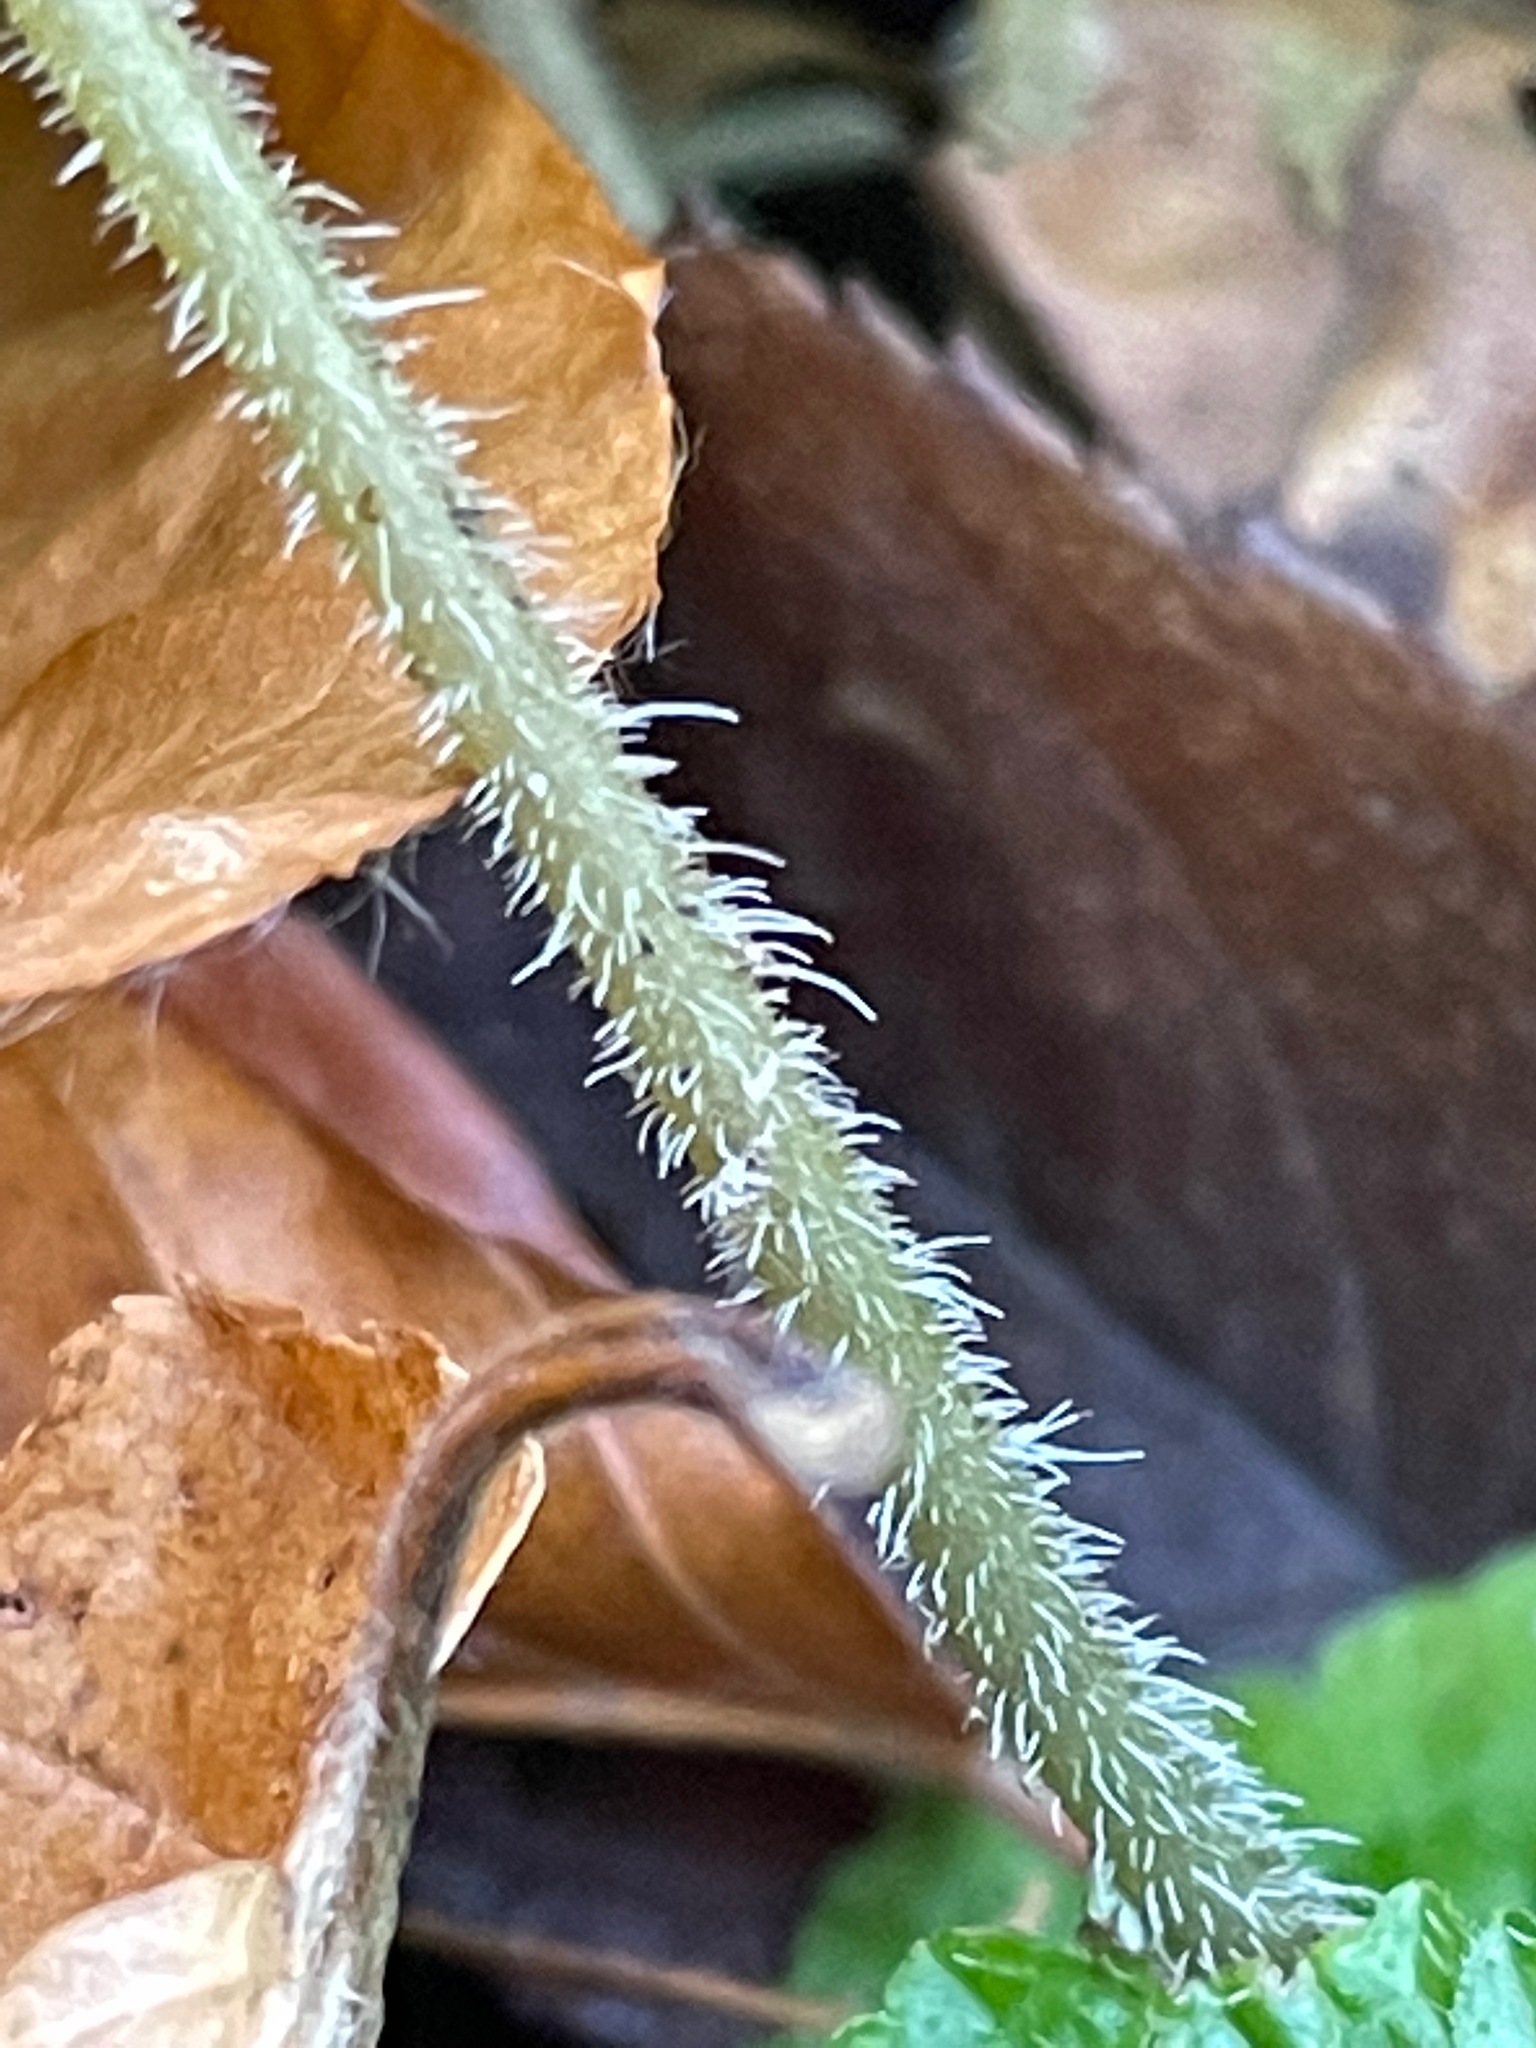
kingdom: Plantae
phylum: Tracheophyta
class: Magnoliopsida
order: Saxifragales
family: Saxifragaceae
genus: Tiarella
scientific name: Tiarella stolonifera
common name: Stoloniferous foamflower
